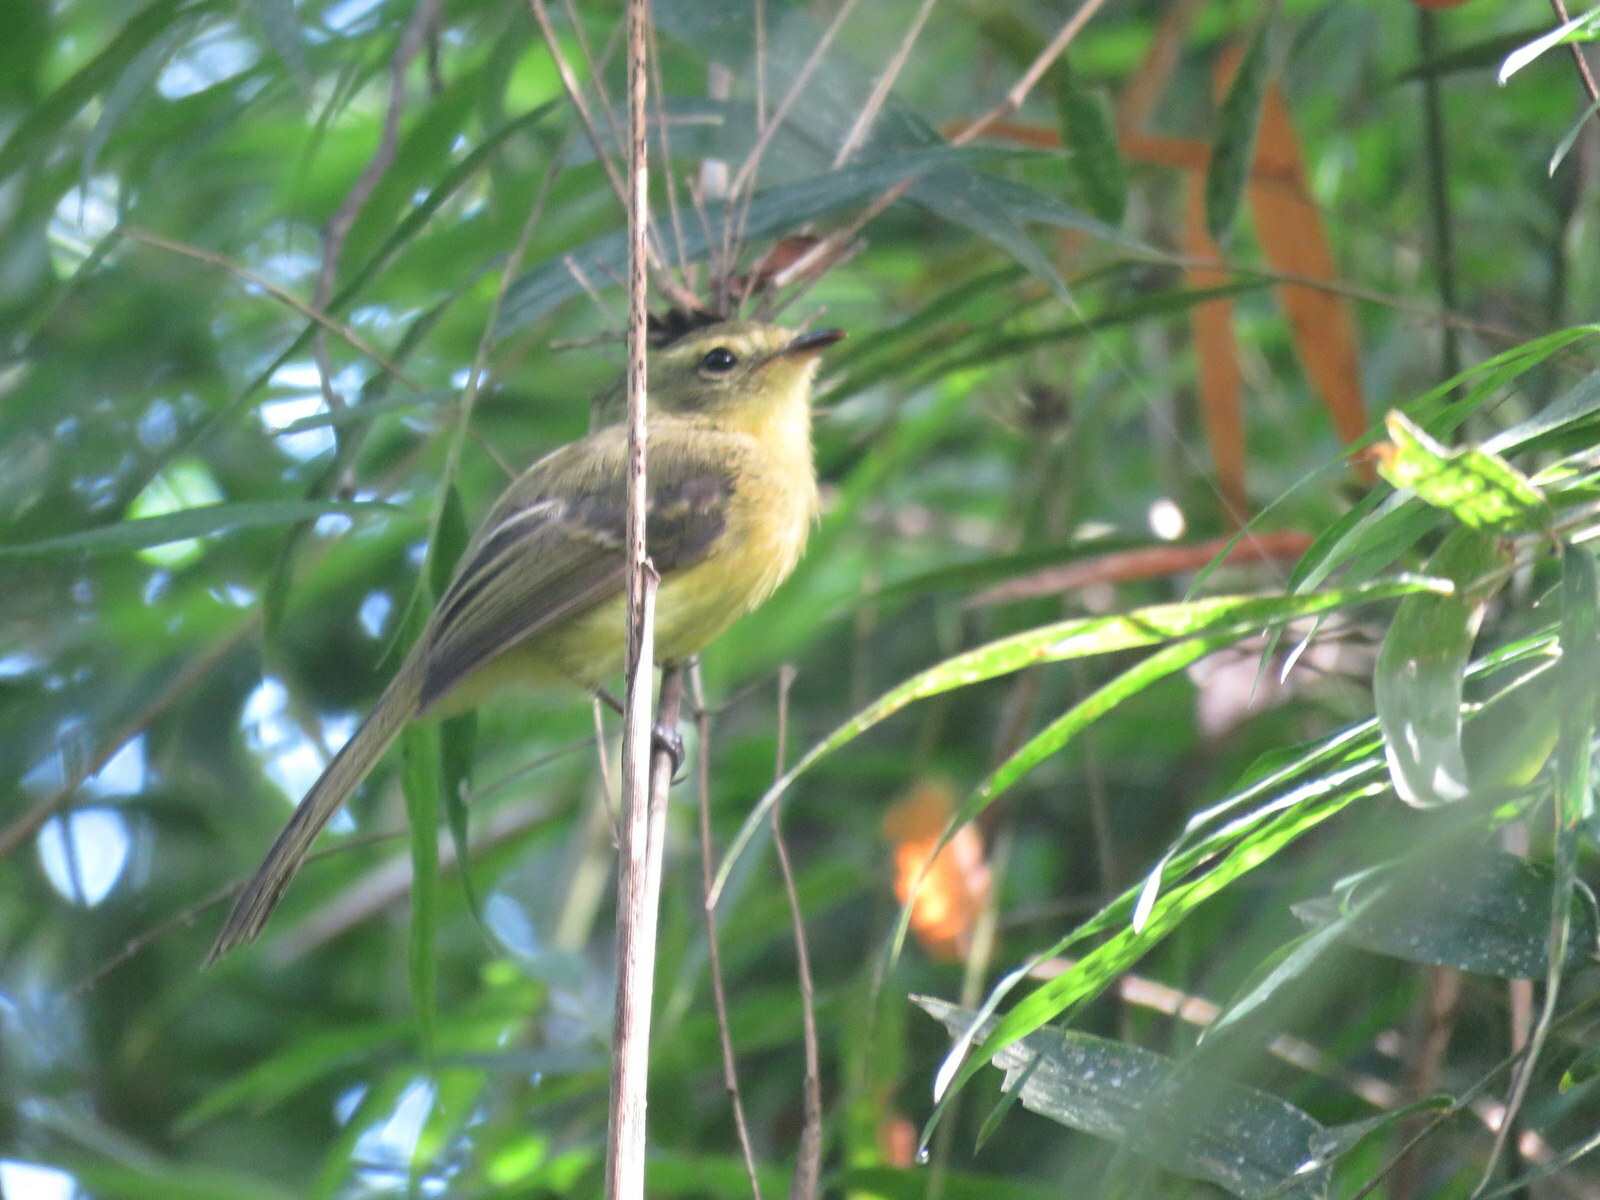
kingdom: Animalia
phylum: Chordata
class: Aves
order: Passeriformes
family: Tyrannidae
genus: Capsiempis
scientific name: Capsiempis flaveola
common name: Yellow tyrannulet
